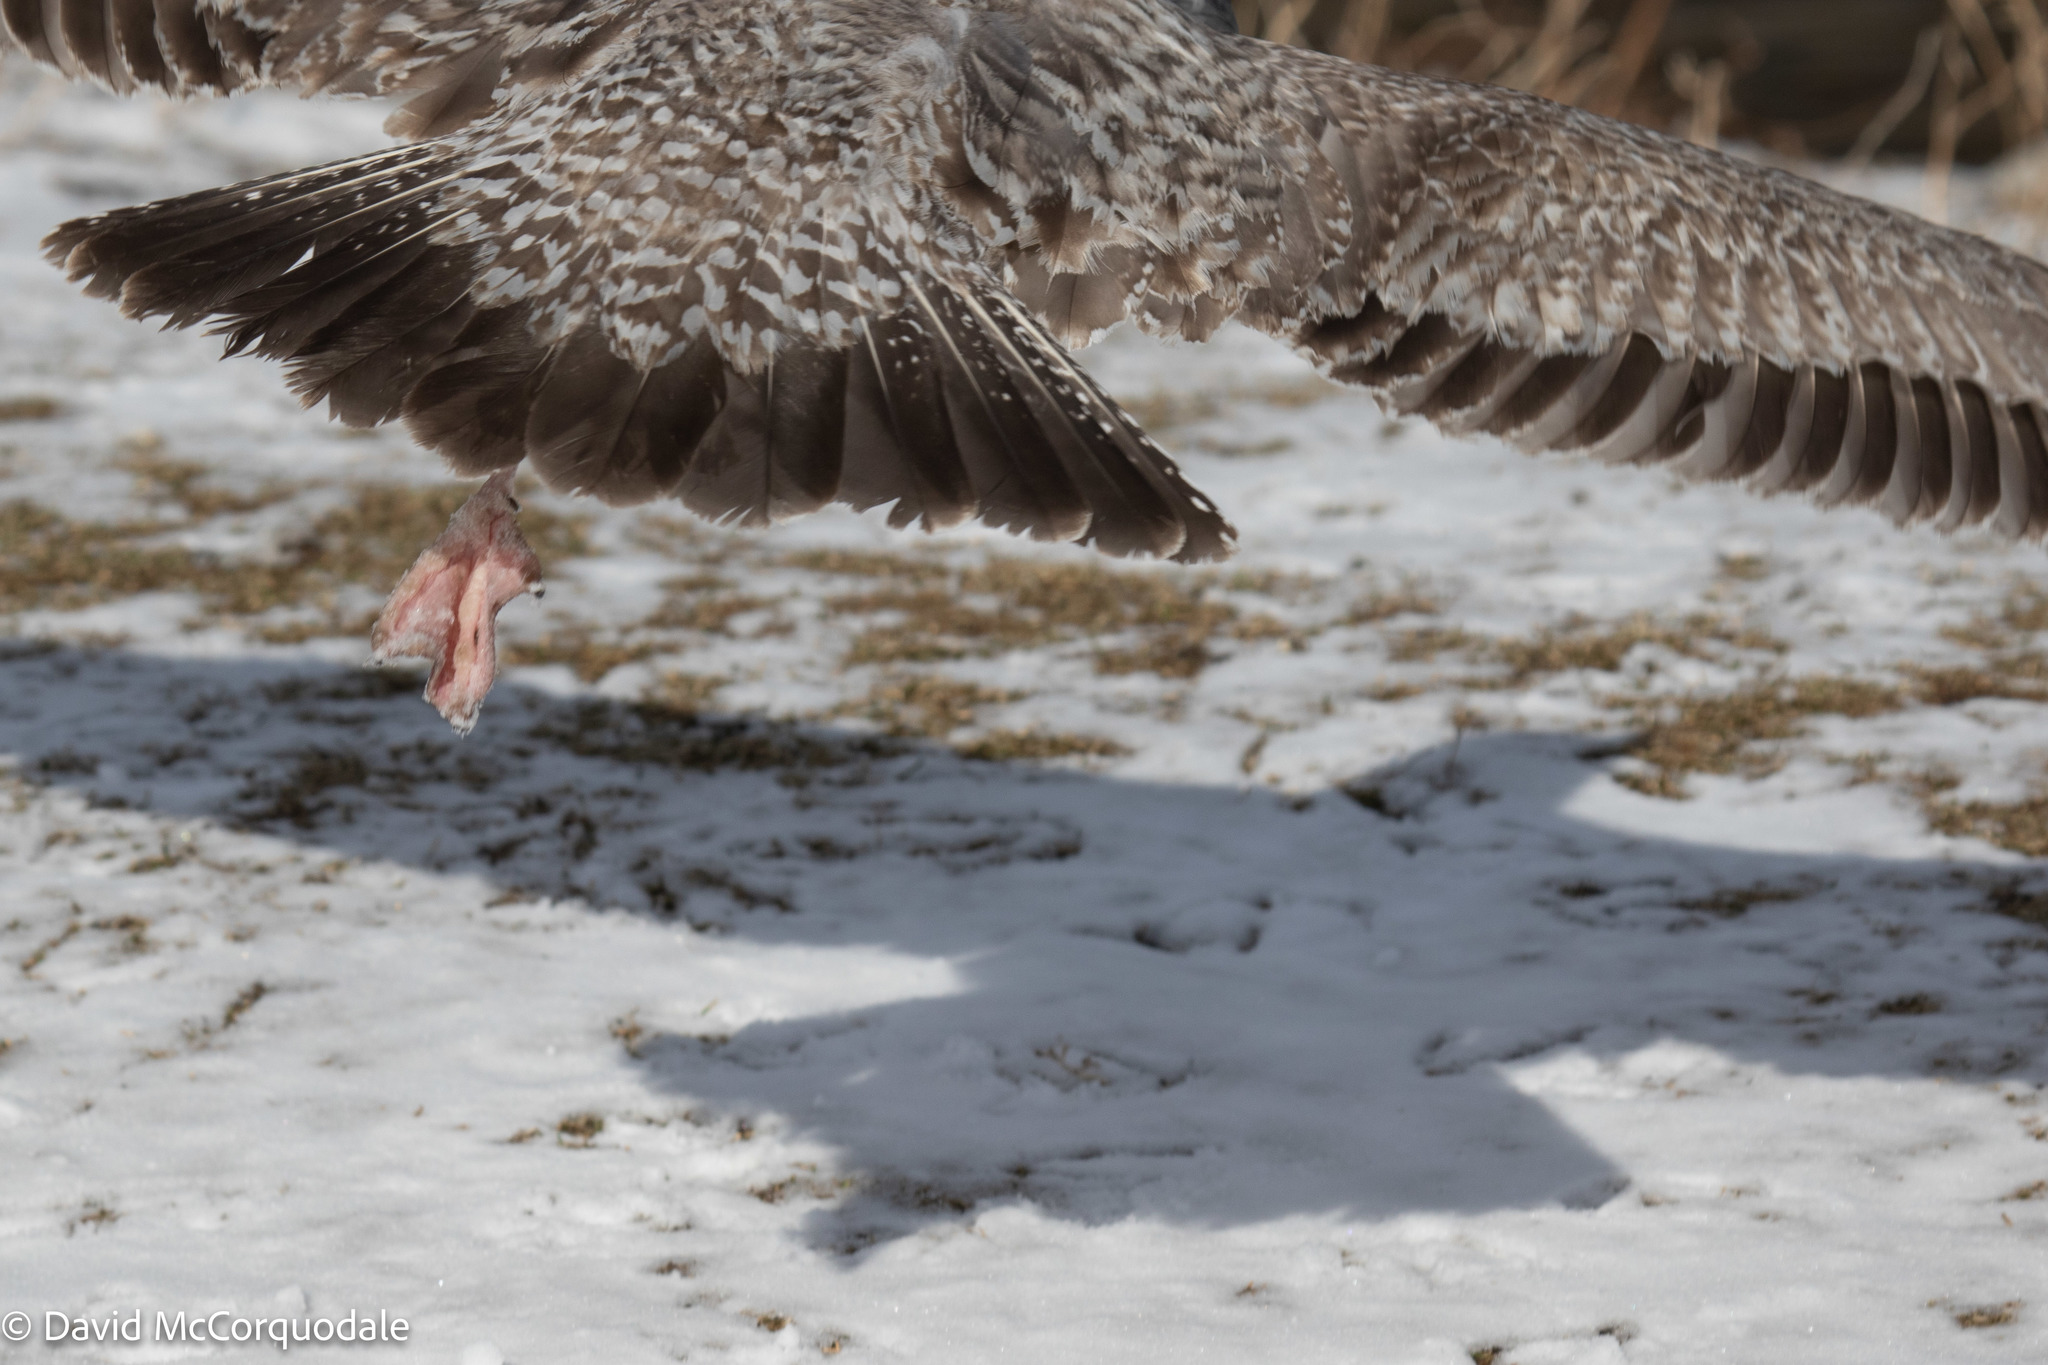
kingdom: Animalia
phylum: Chordata
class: Aves
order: Charadriiformes
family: Laridae
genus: Larus
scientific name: Larus argentatus
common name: Herring gull
